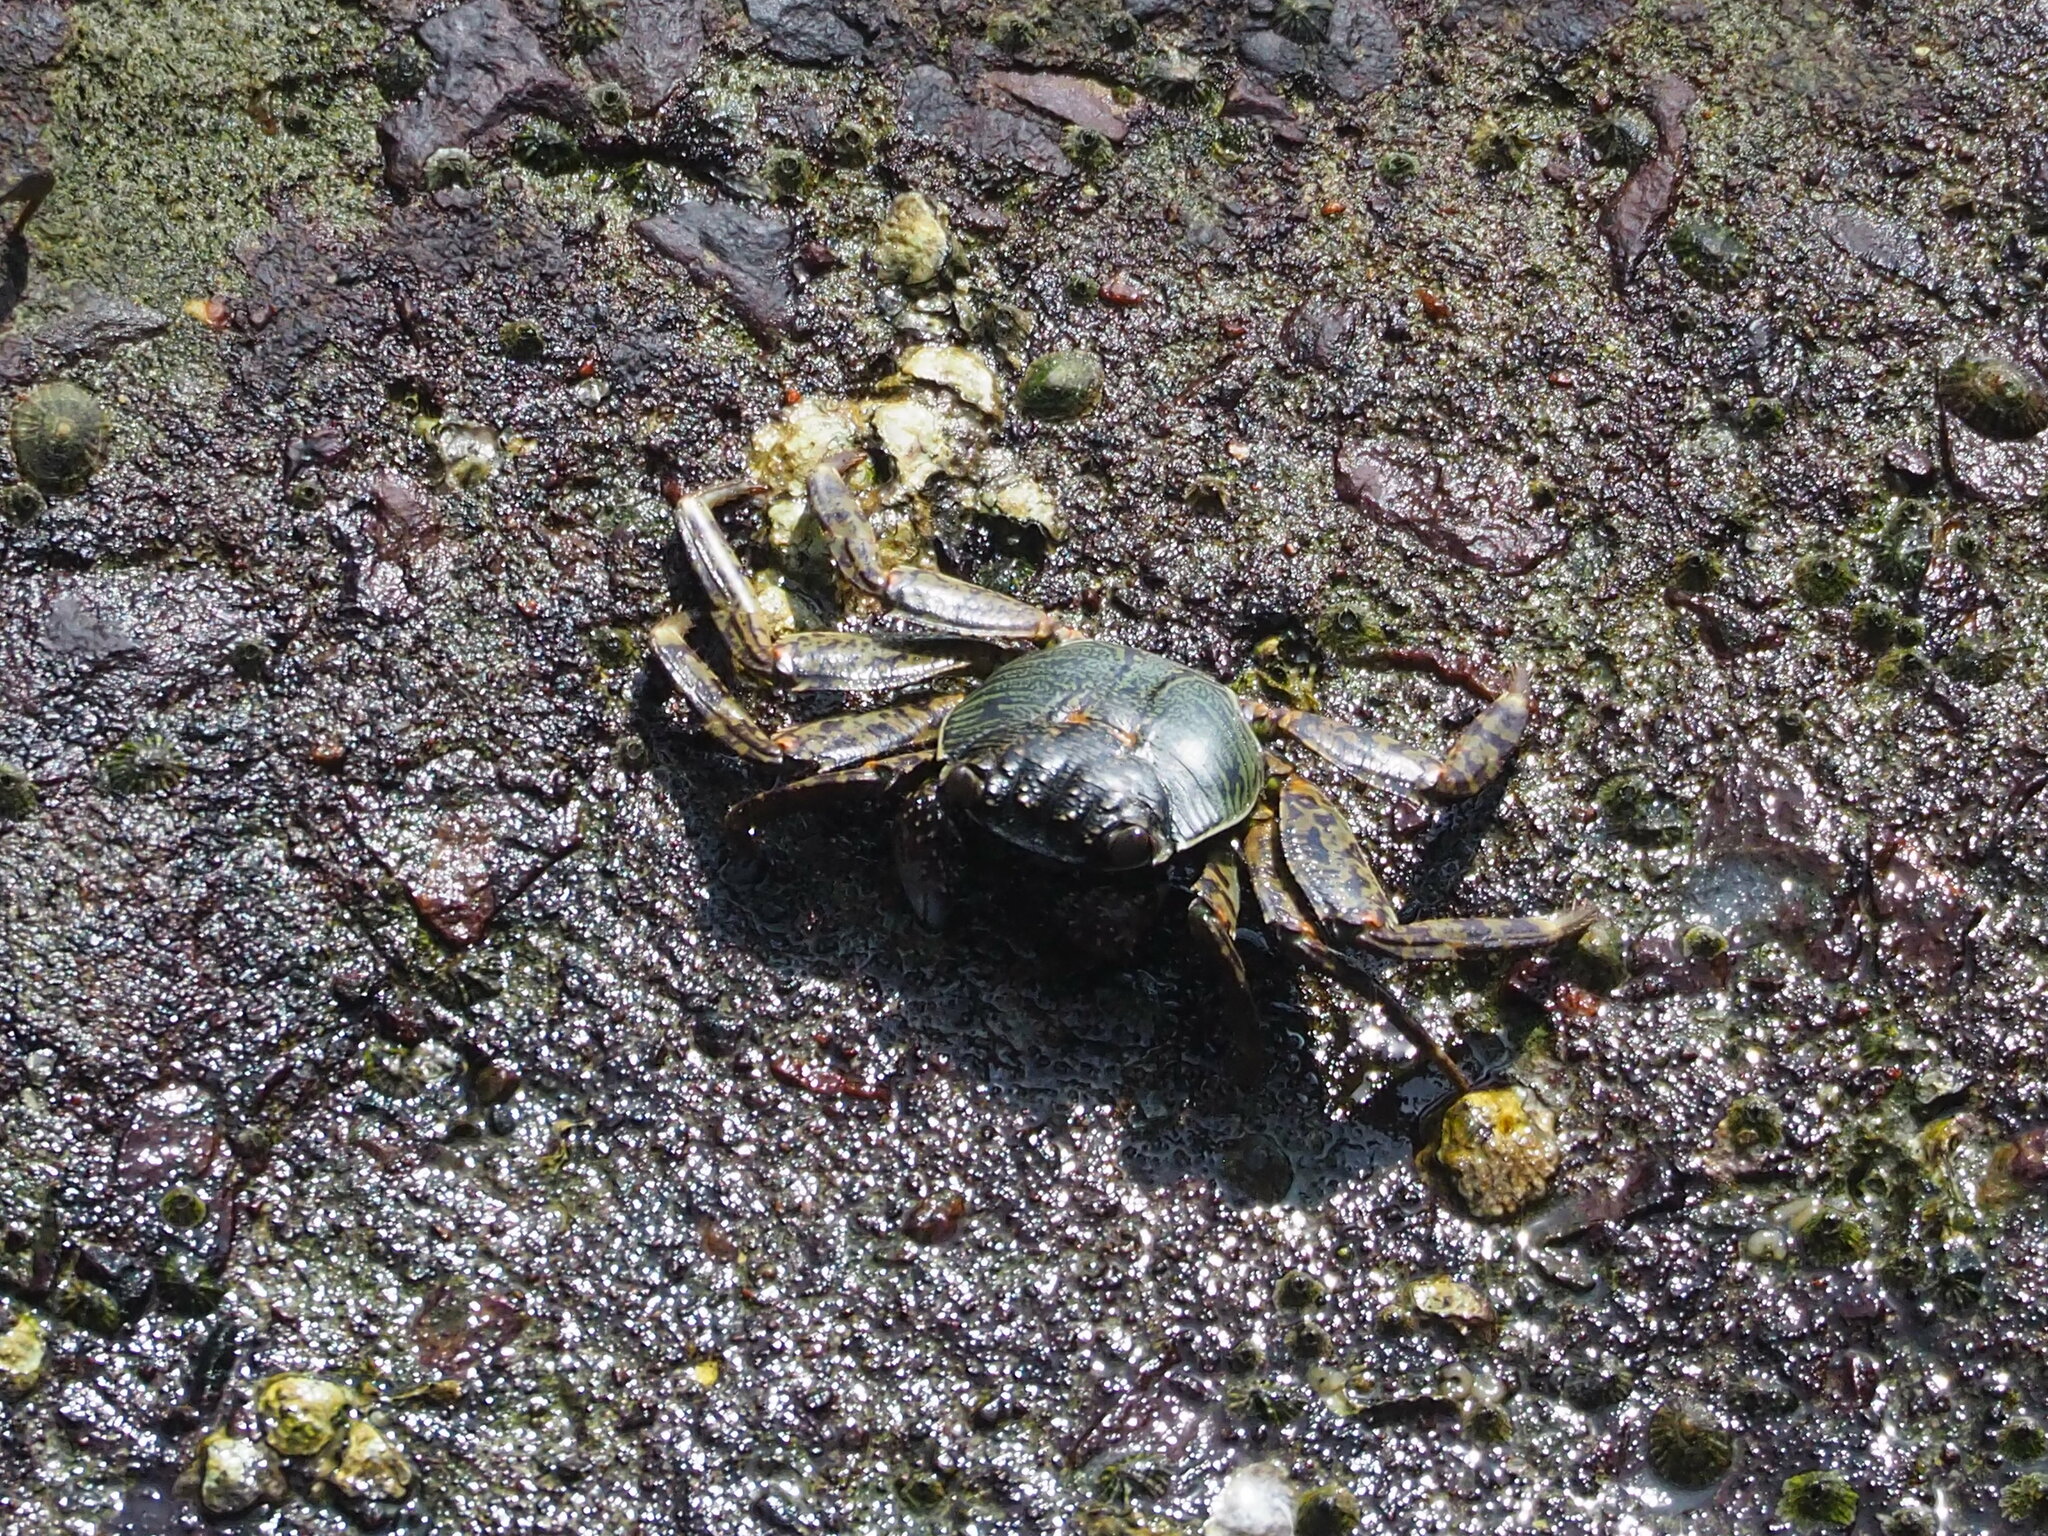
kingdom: Animalia
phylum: Arthropoda
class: Malacostraca
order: Decapoda
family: Grapsidae
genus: Grapsus
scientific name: Grapsus albolineatus
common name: Mottled lightfoot crab
